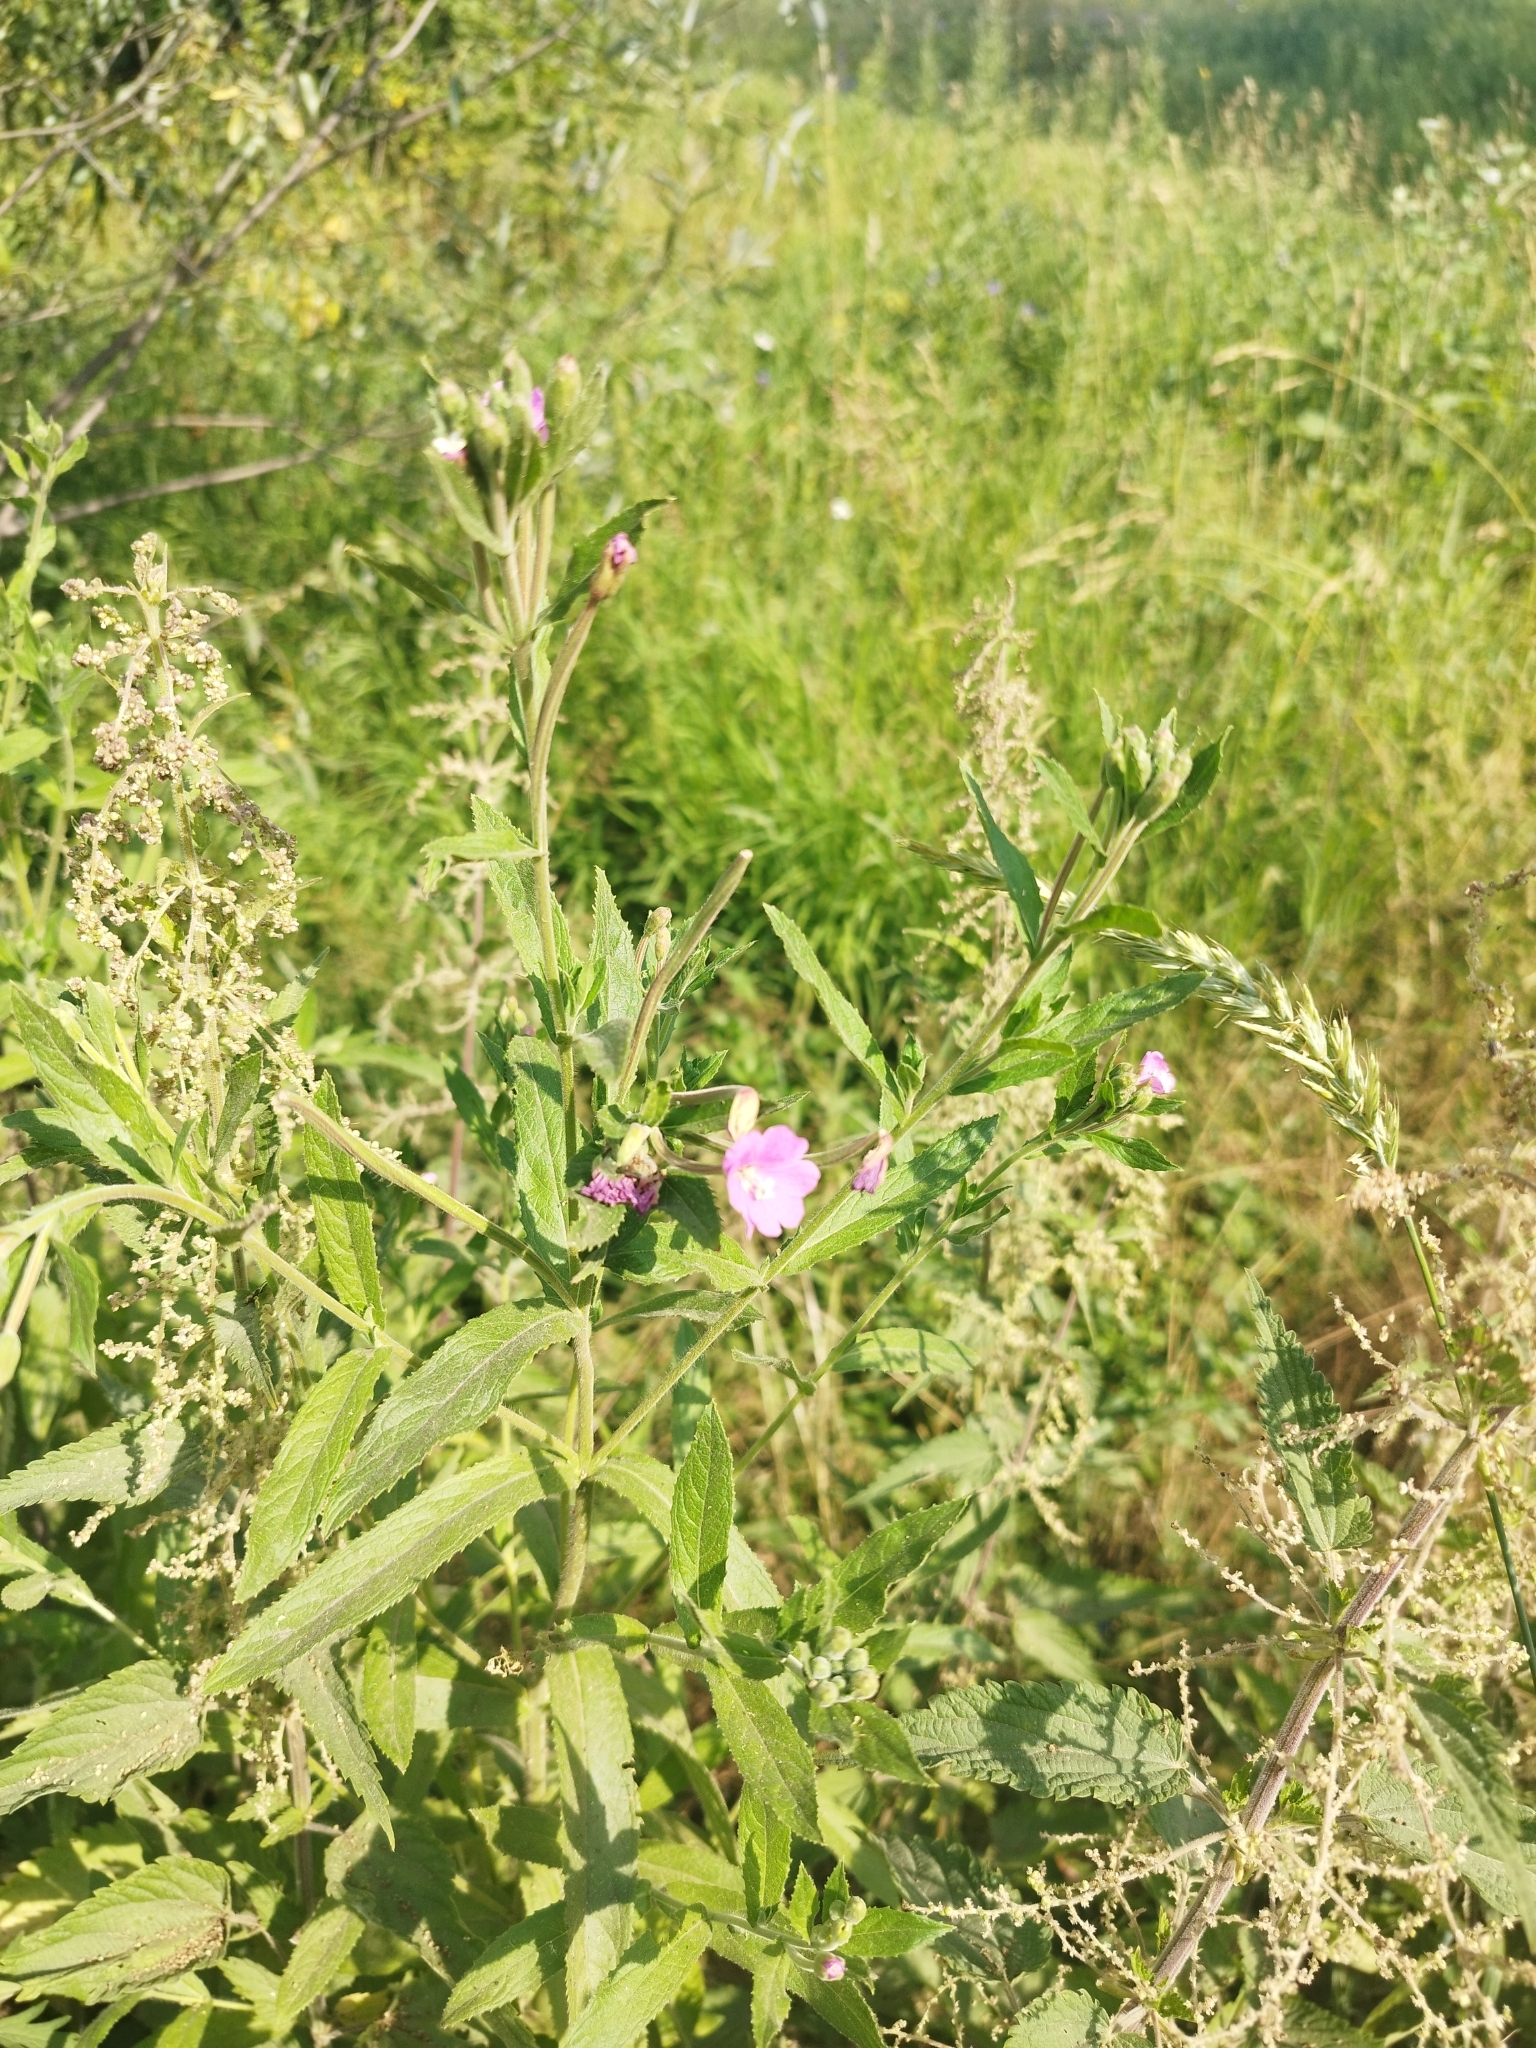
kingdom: Plantae
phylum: Tracheophyta
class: Magnoliopsida
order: Myrtales
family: Onagraceae
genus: Epilobium
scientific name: Epilobium hirsutum
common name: Great willowherb
